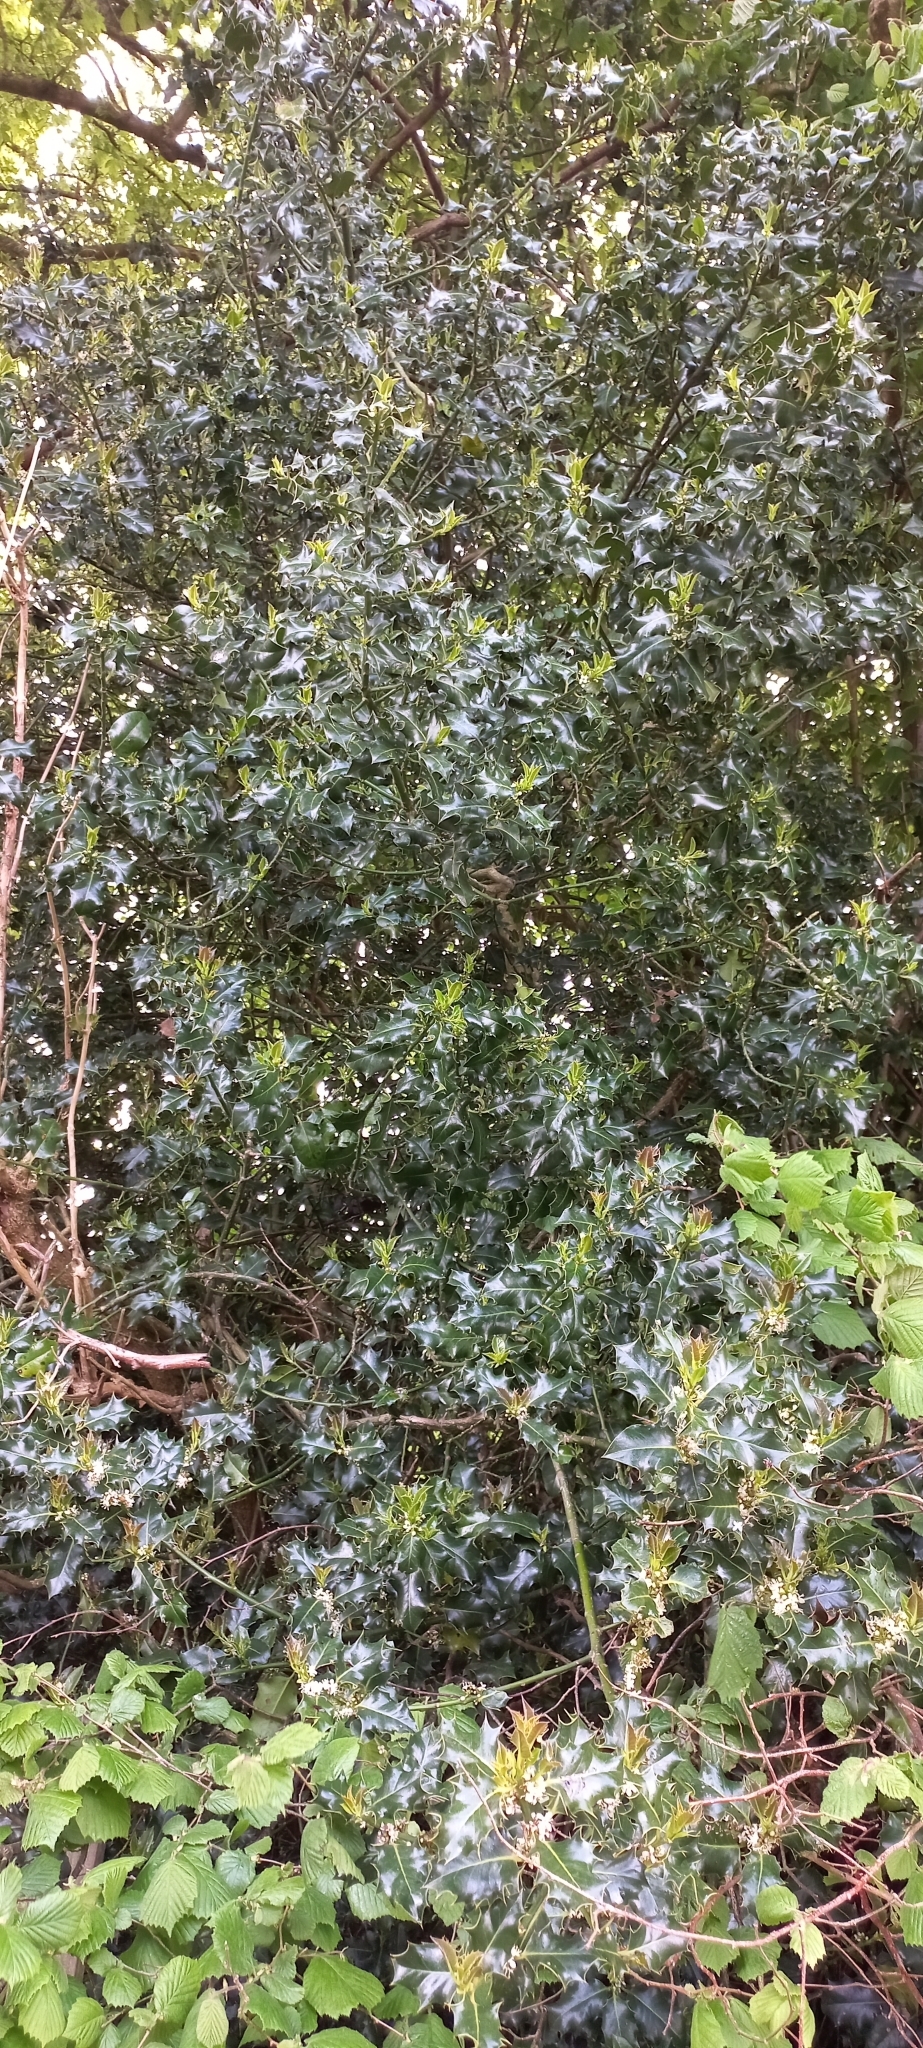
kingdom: Plantae
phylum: Tracheophyta
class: Magnoliopsida
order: Aquifoliales
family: Aquifoliaceae
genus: Ilex
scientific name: Ilex aquifolium
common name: English holly
